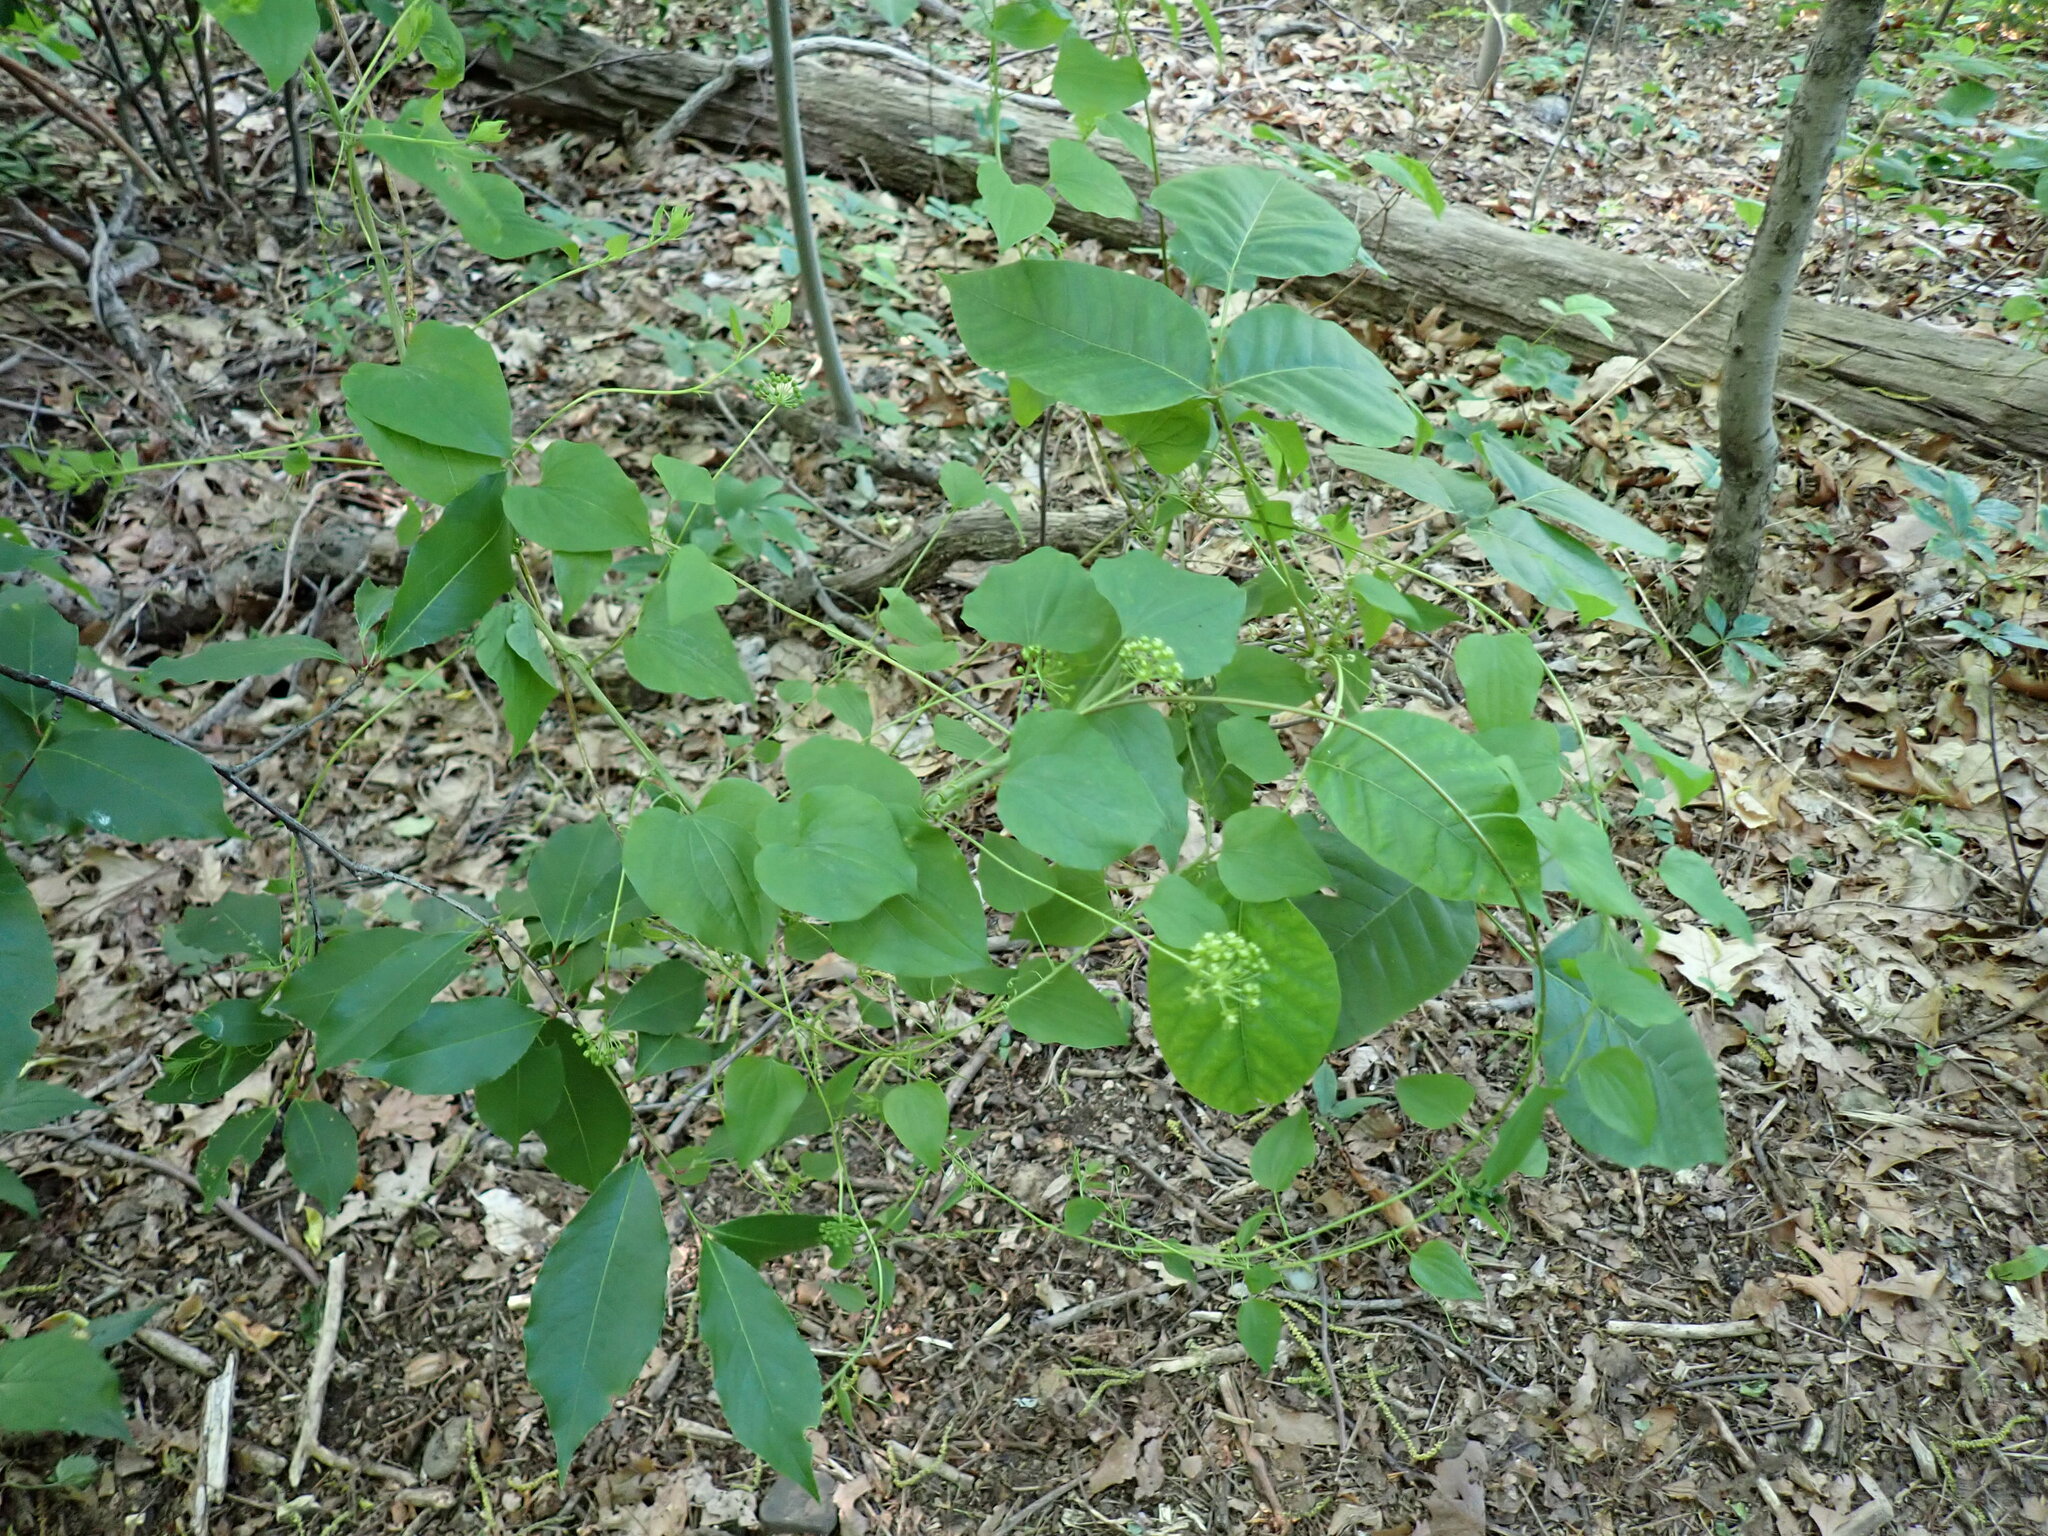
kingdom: Plantae
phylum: Tracheophyta
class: Liliopsida
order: Liliales
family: Smilacaceae
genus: Smilax
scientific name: Smilax herbacea
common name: Jacob's-ladder
